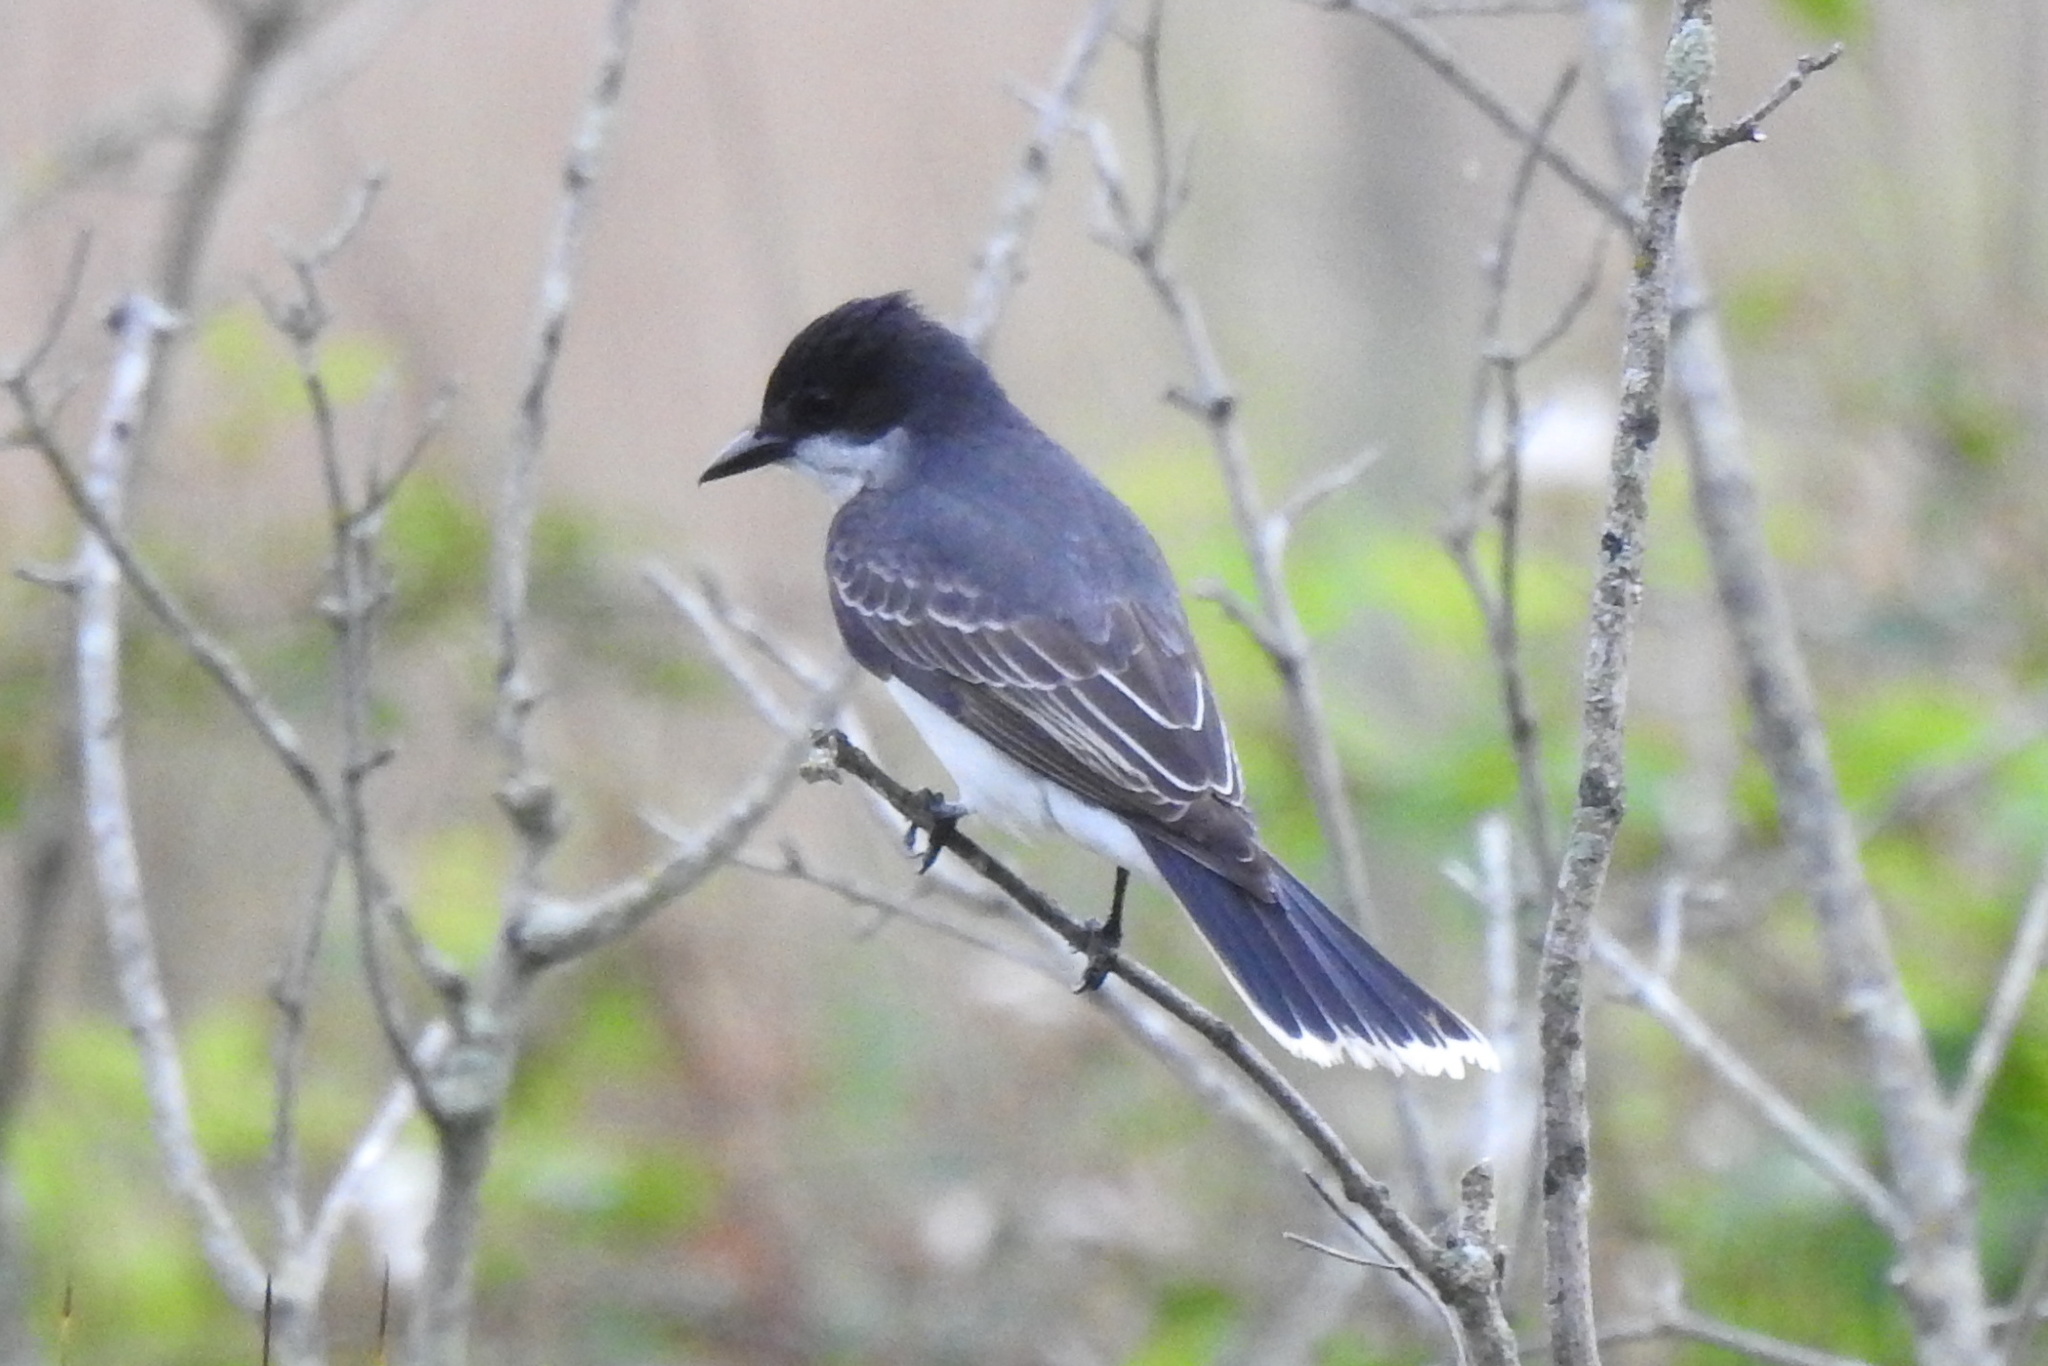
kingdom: Animalia
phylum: Chordata
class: Aves
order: Passeriformes
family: Tyrannidae
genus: Tyrannus
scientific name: Tyrannus tyrannus
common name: Eastern kingbird
